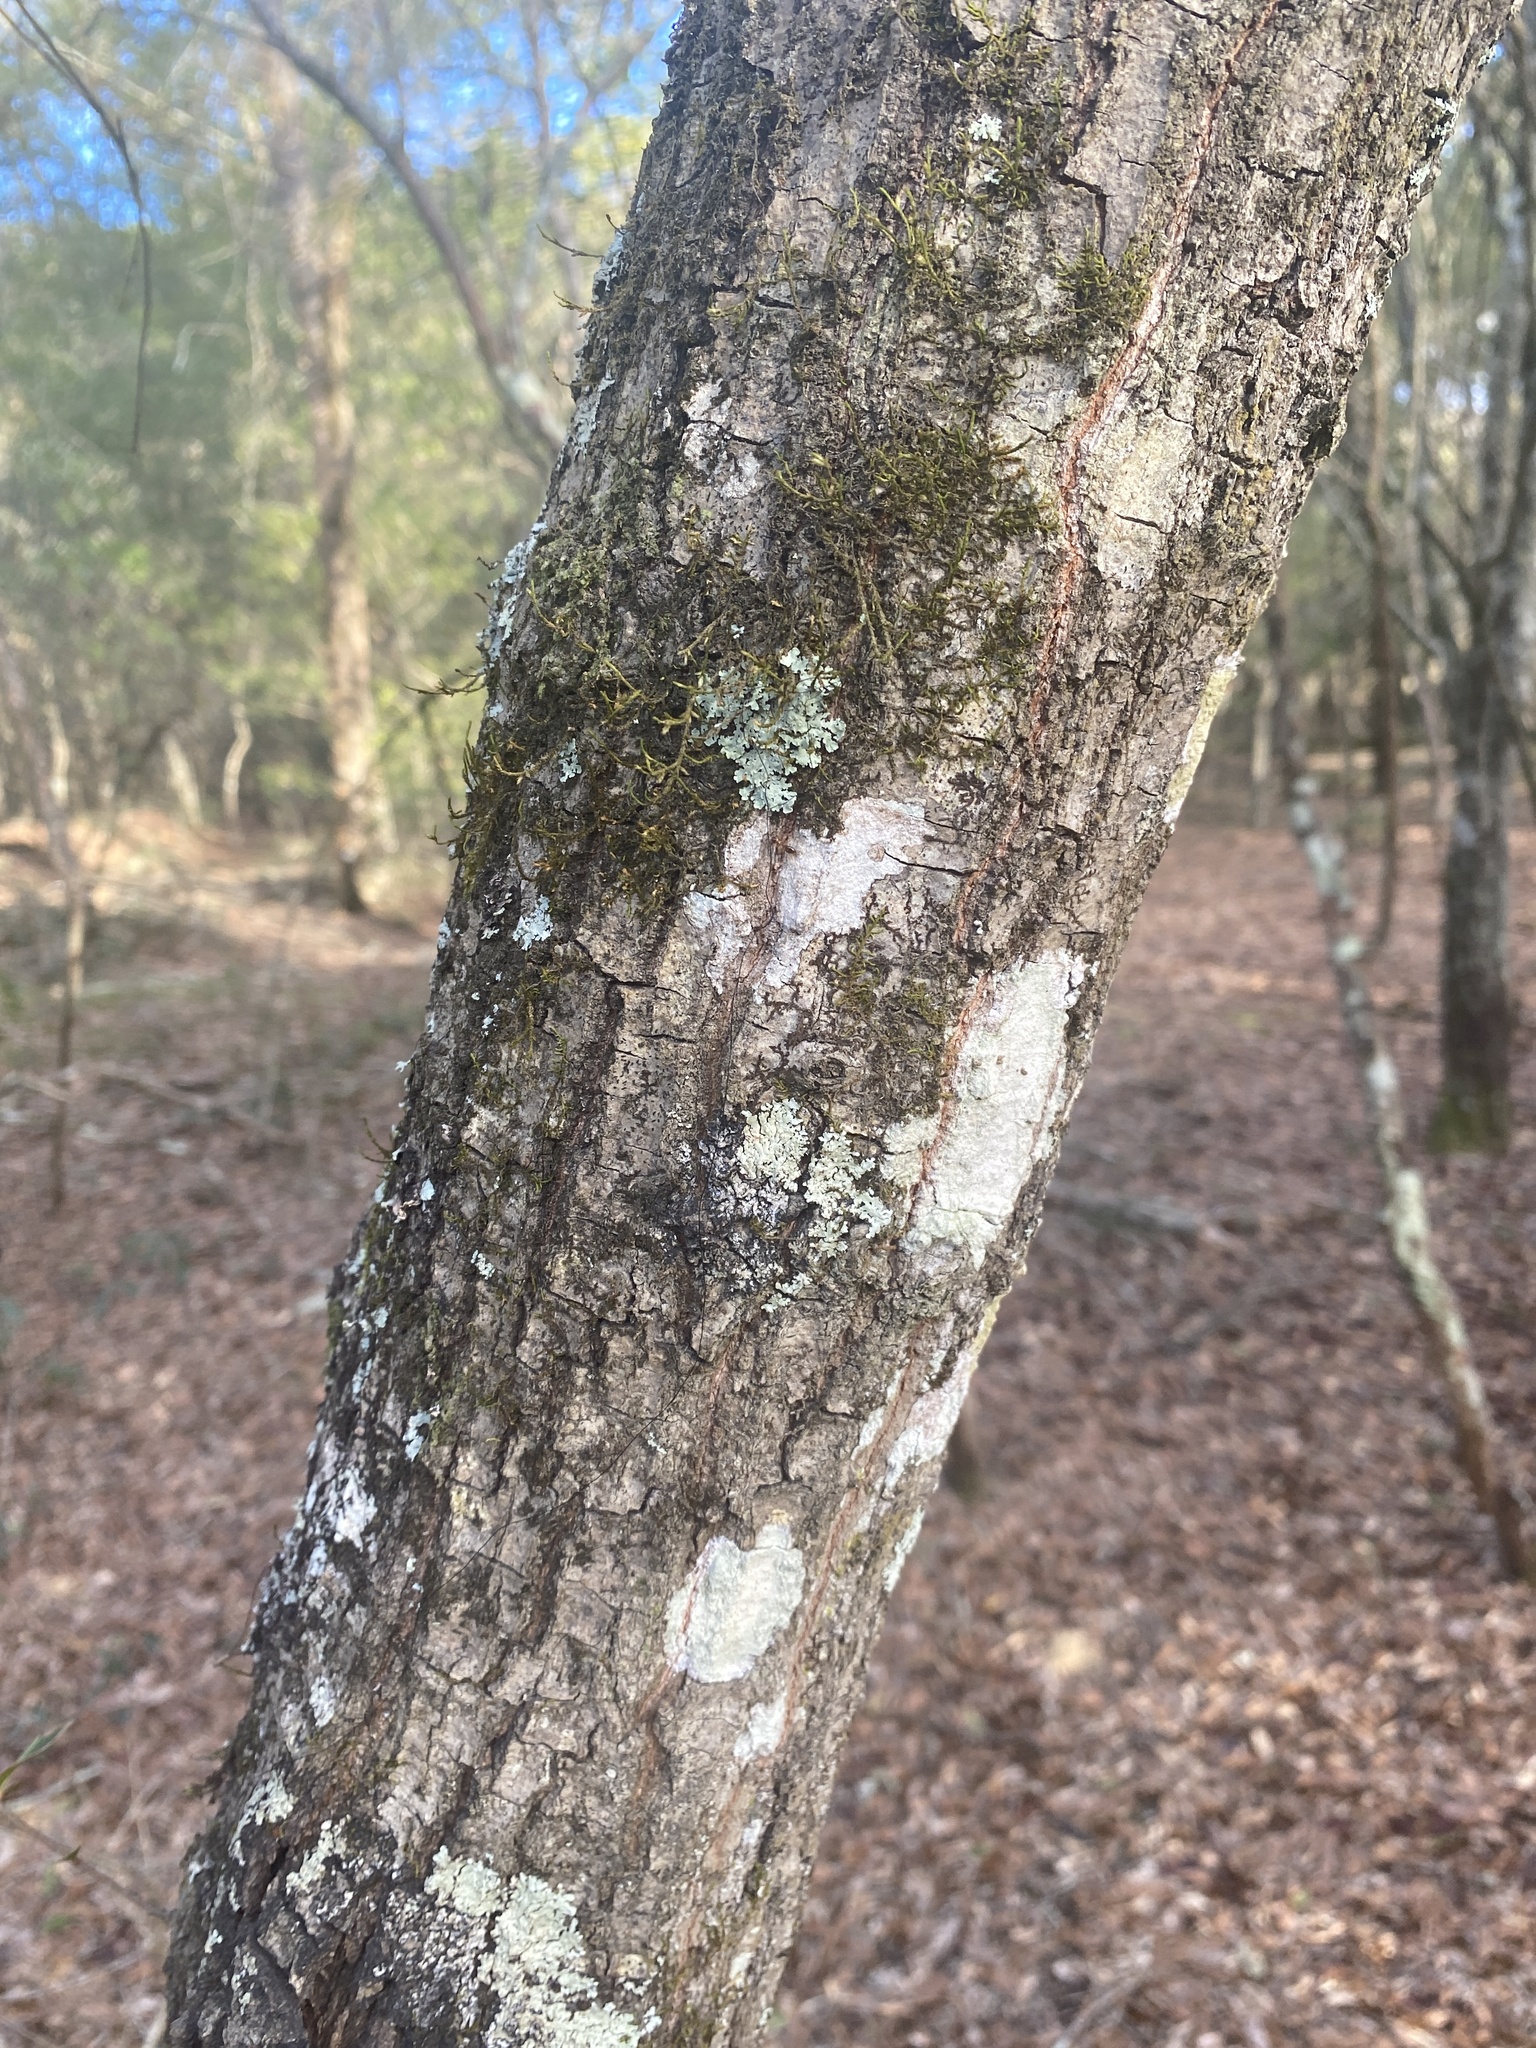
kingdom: Plantae
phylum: Tracheophyta
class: Magnoliopsida
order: Fagales
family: Fagaceae
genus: Quercus
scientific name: Quercus nigra
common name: Water oak
